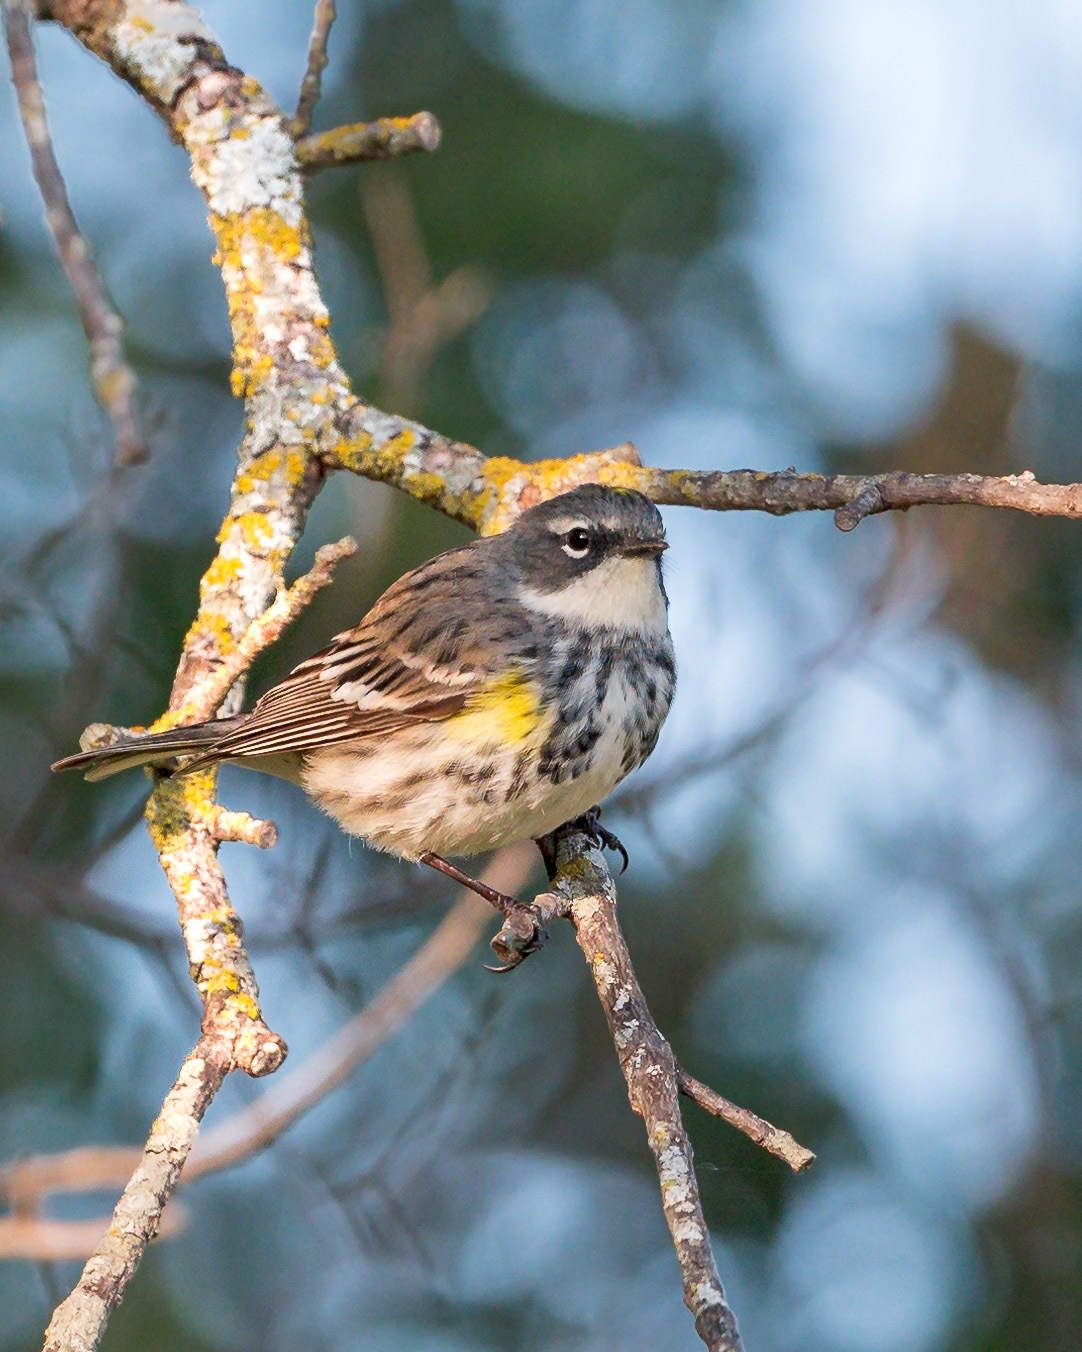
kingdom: Animalia
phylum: Chordata
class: Aves
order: Passeriformes
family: Parulidae
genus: Setophaga
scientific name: Setophaga coronata
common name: Myrtle warbler
